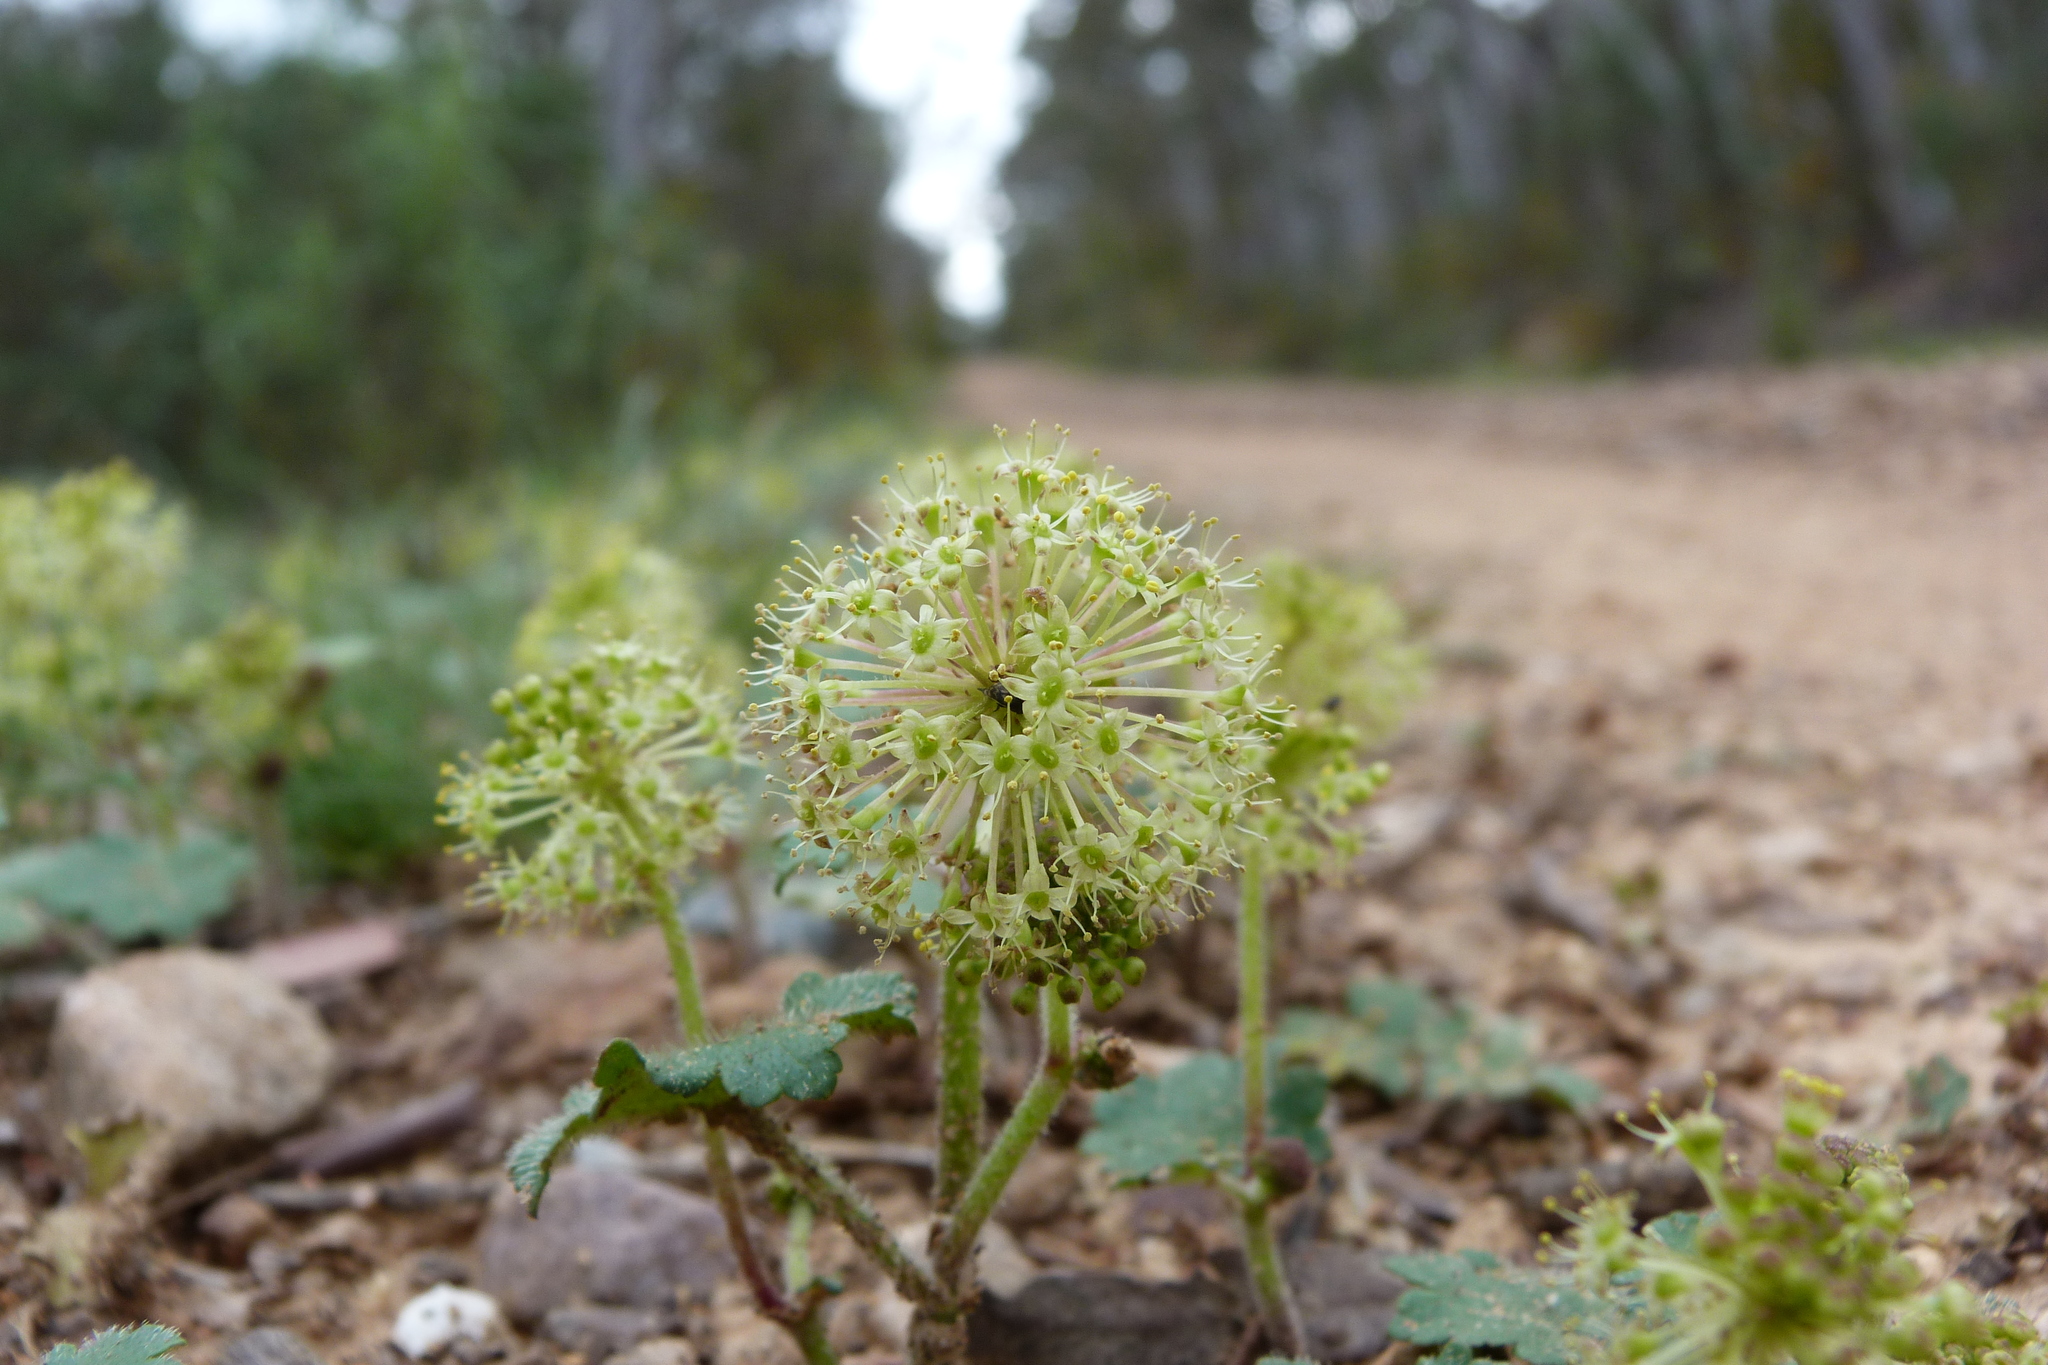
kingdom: Plantae
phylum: Tracheophyta
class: Magnoliopsida
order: Apiales
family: Araliaceae
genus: Hydrocotyle
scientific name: Hydrocotyle laxiflora
